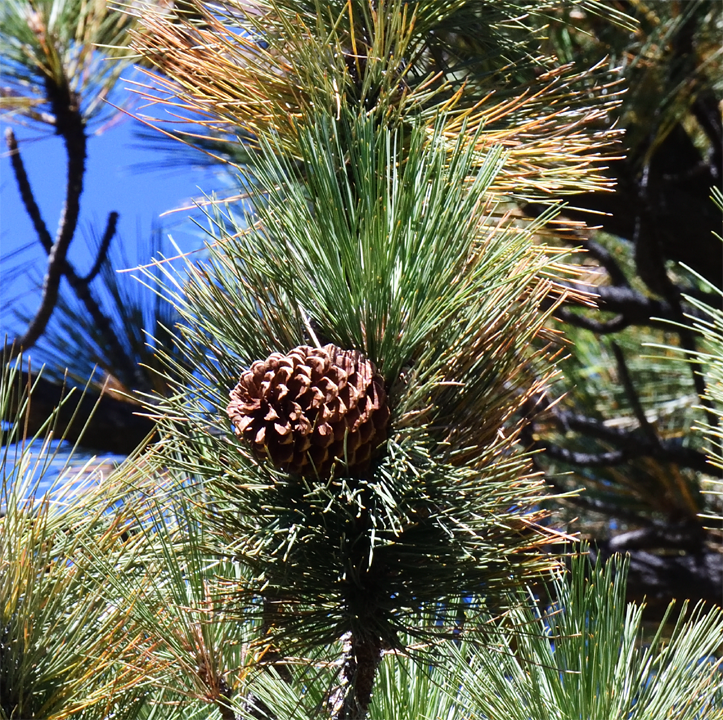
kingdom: Plantae
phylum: Tracheophyta
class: Pinopsida
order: Pinales
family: Pinaceae
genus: Pinus
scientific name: Pinus jeffreyi
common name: Jeffrey pine
